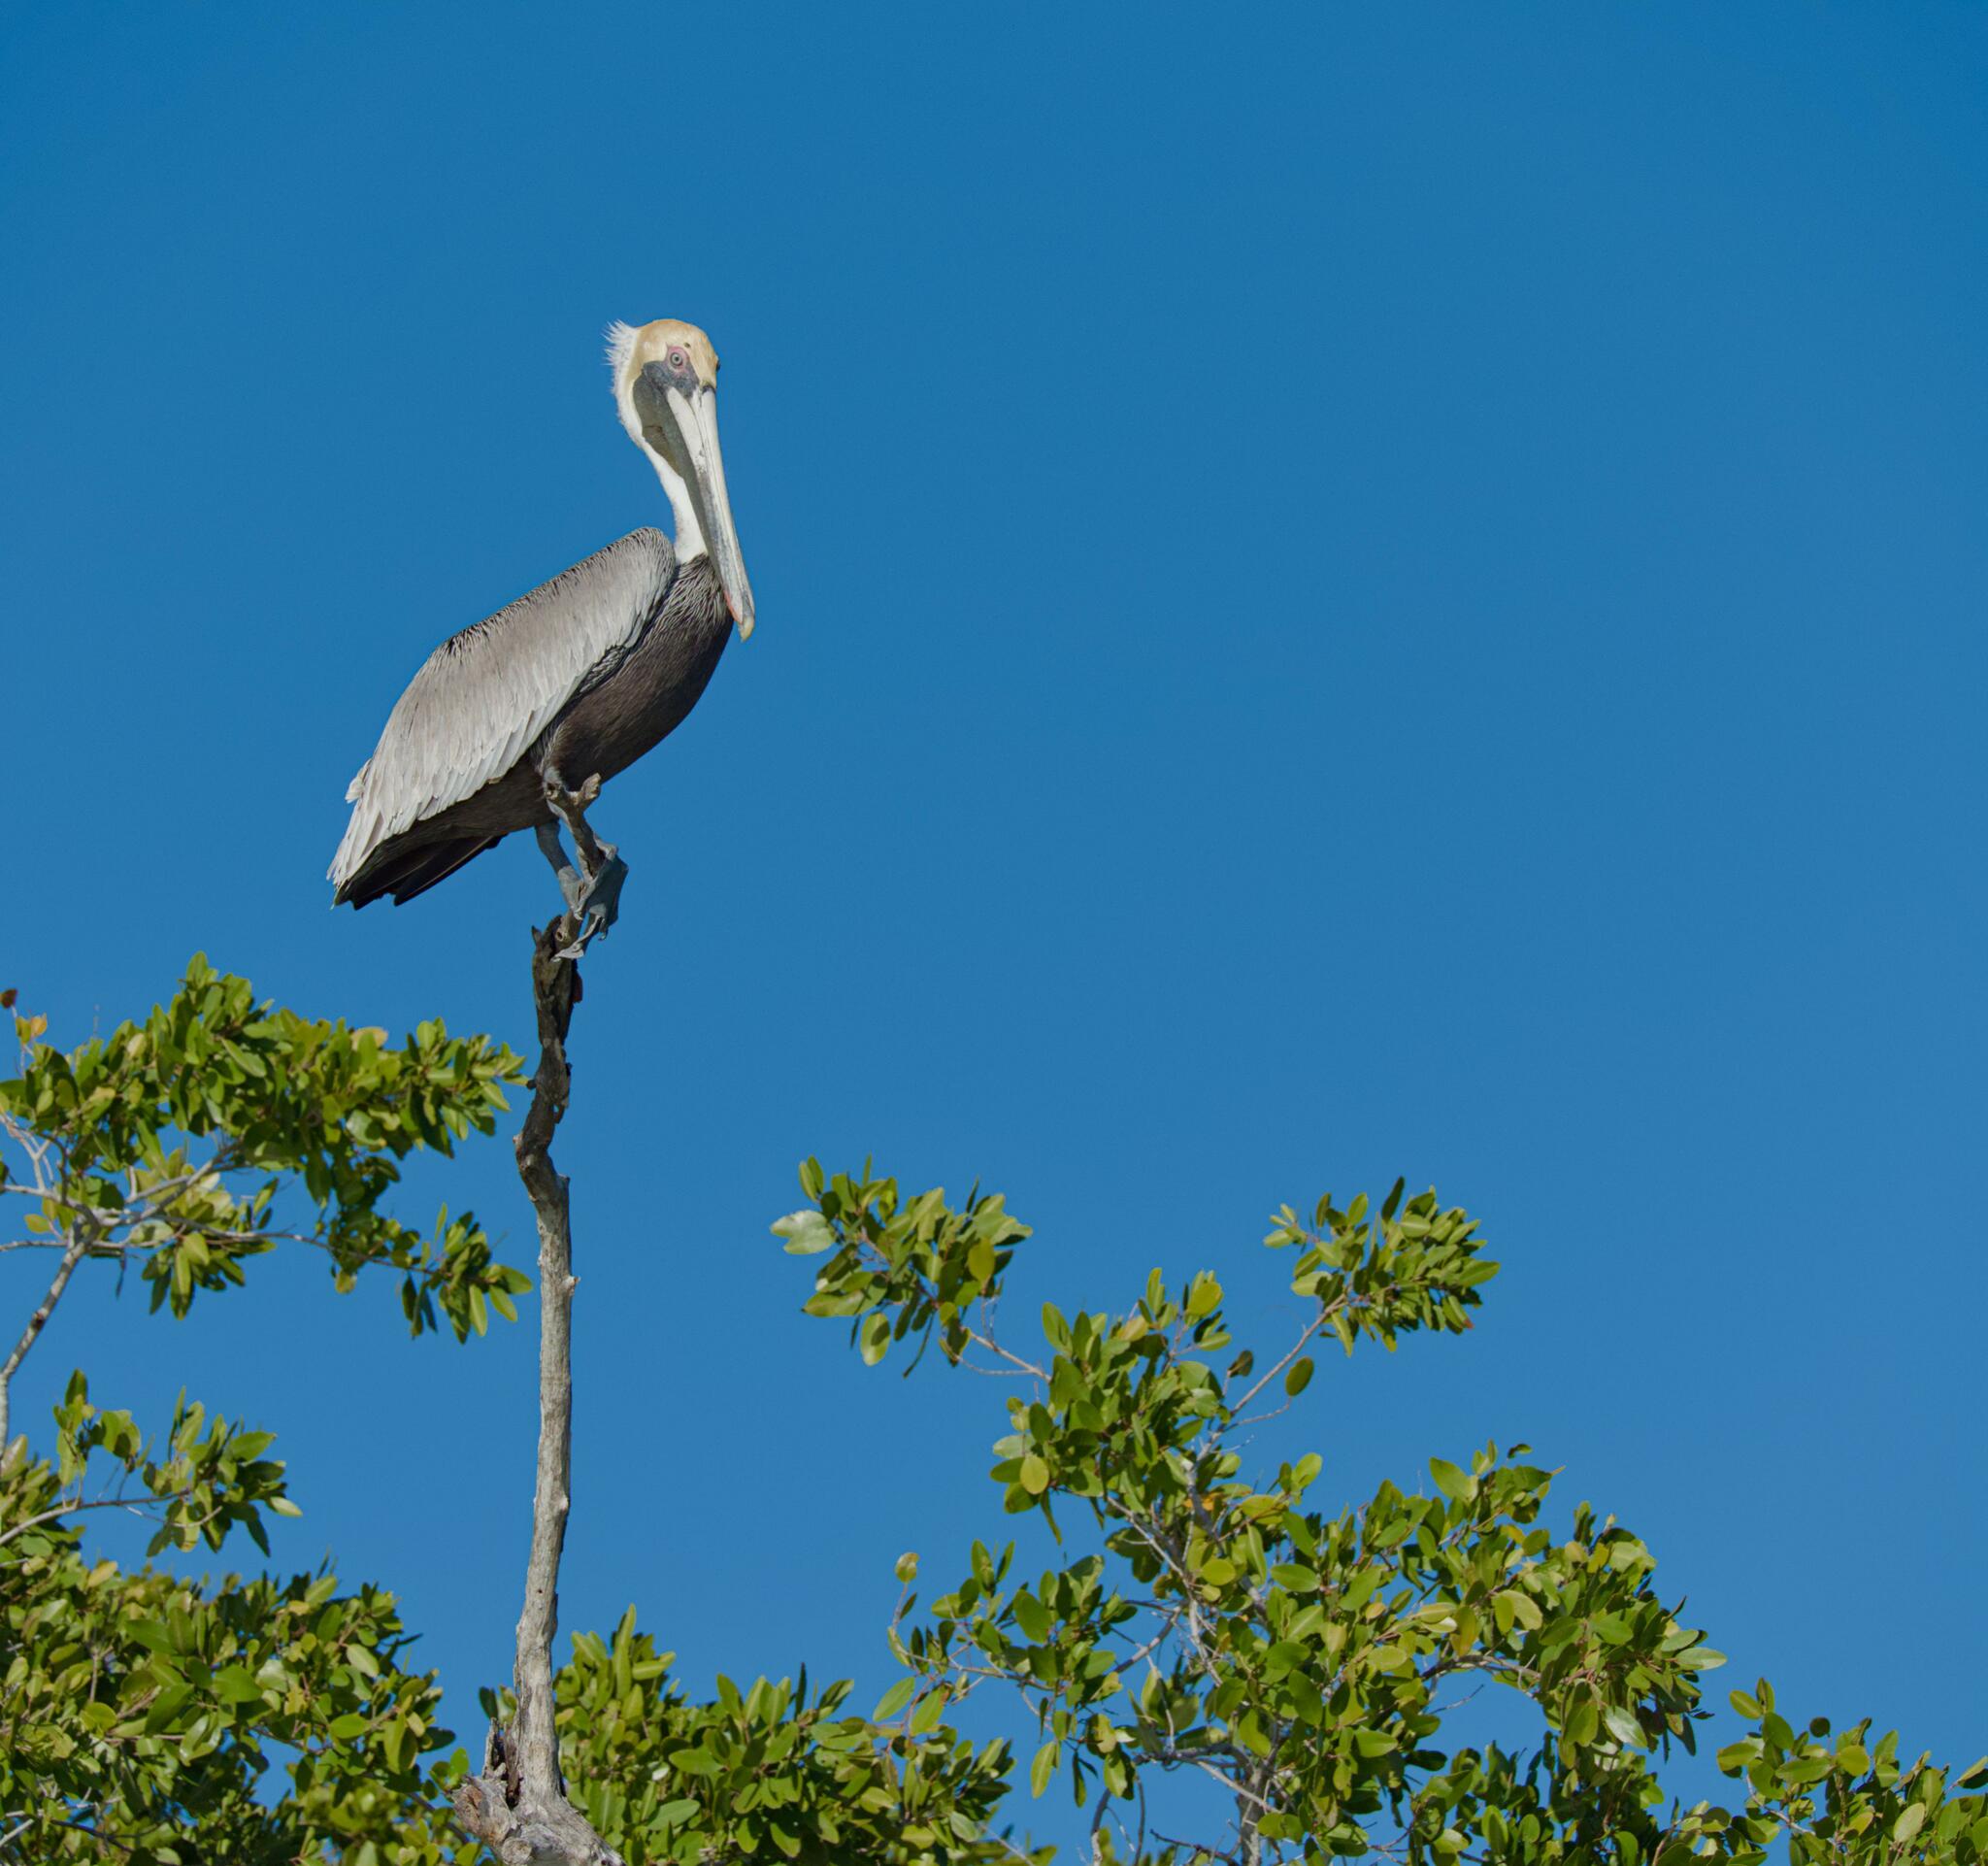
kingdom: Animalia
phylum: Chordata
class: Aves
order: Pelecaniformes
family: Pelecanidae
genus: Pelecanus
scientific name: Pelecanus occidentalis
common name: Brown pelican
